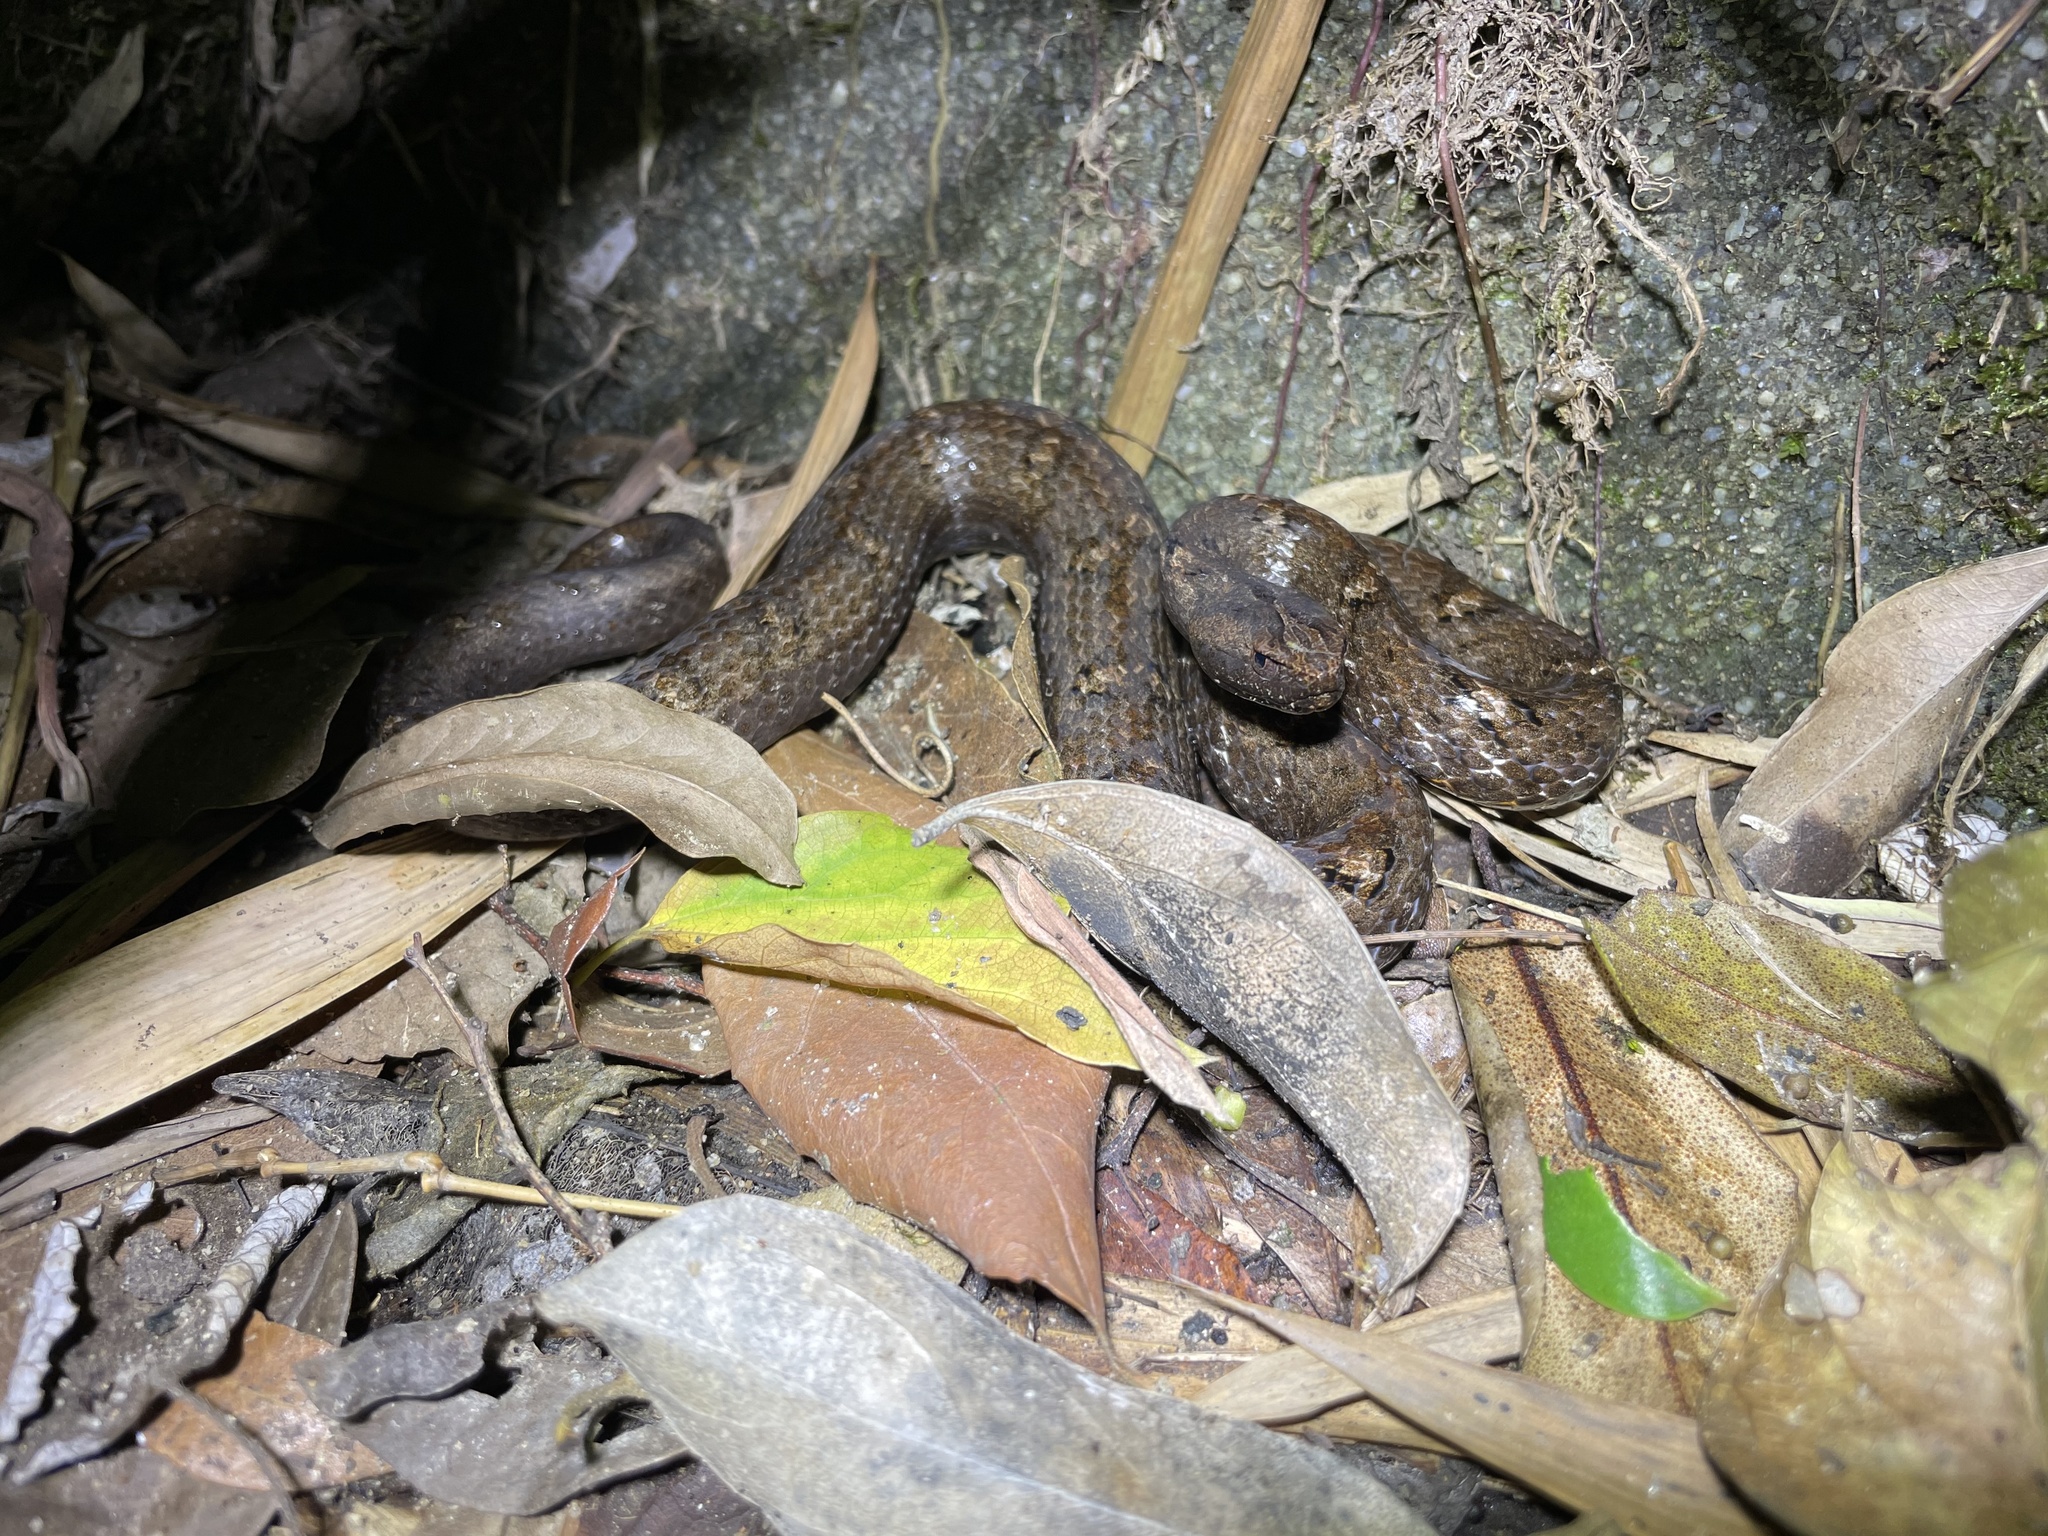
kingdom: Animalia
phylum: Chordata
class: Squamata
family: Pseudaspididae
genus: Psammodynastes
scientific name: Psammodynastes pulverulentus
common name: Common mock viper
